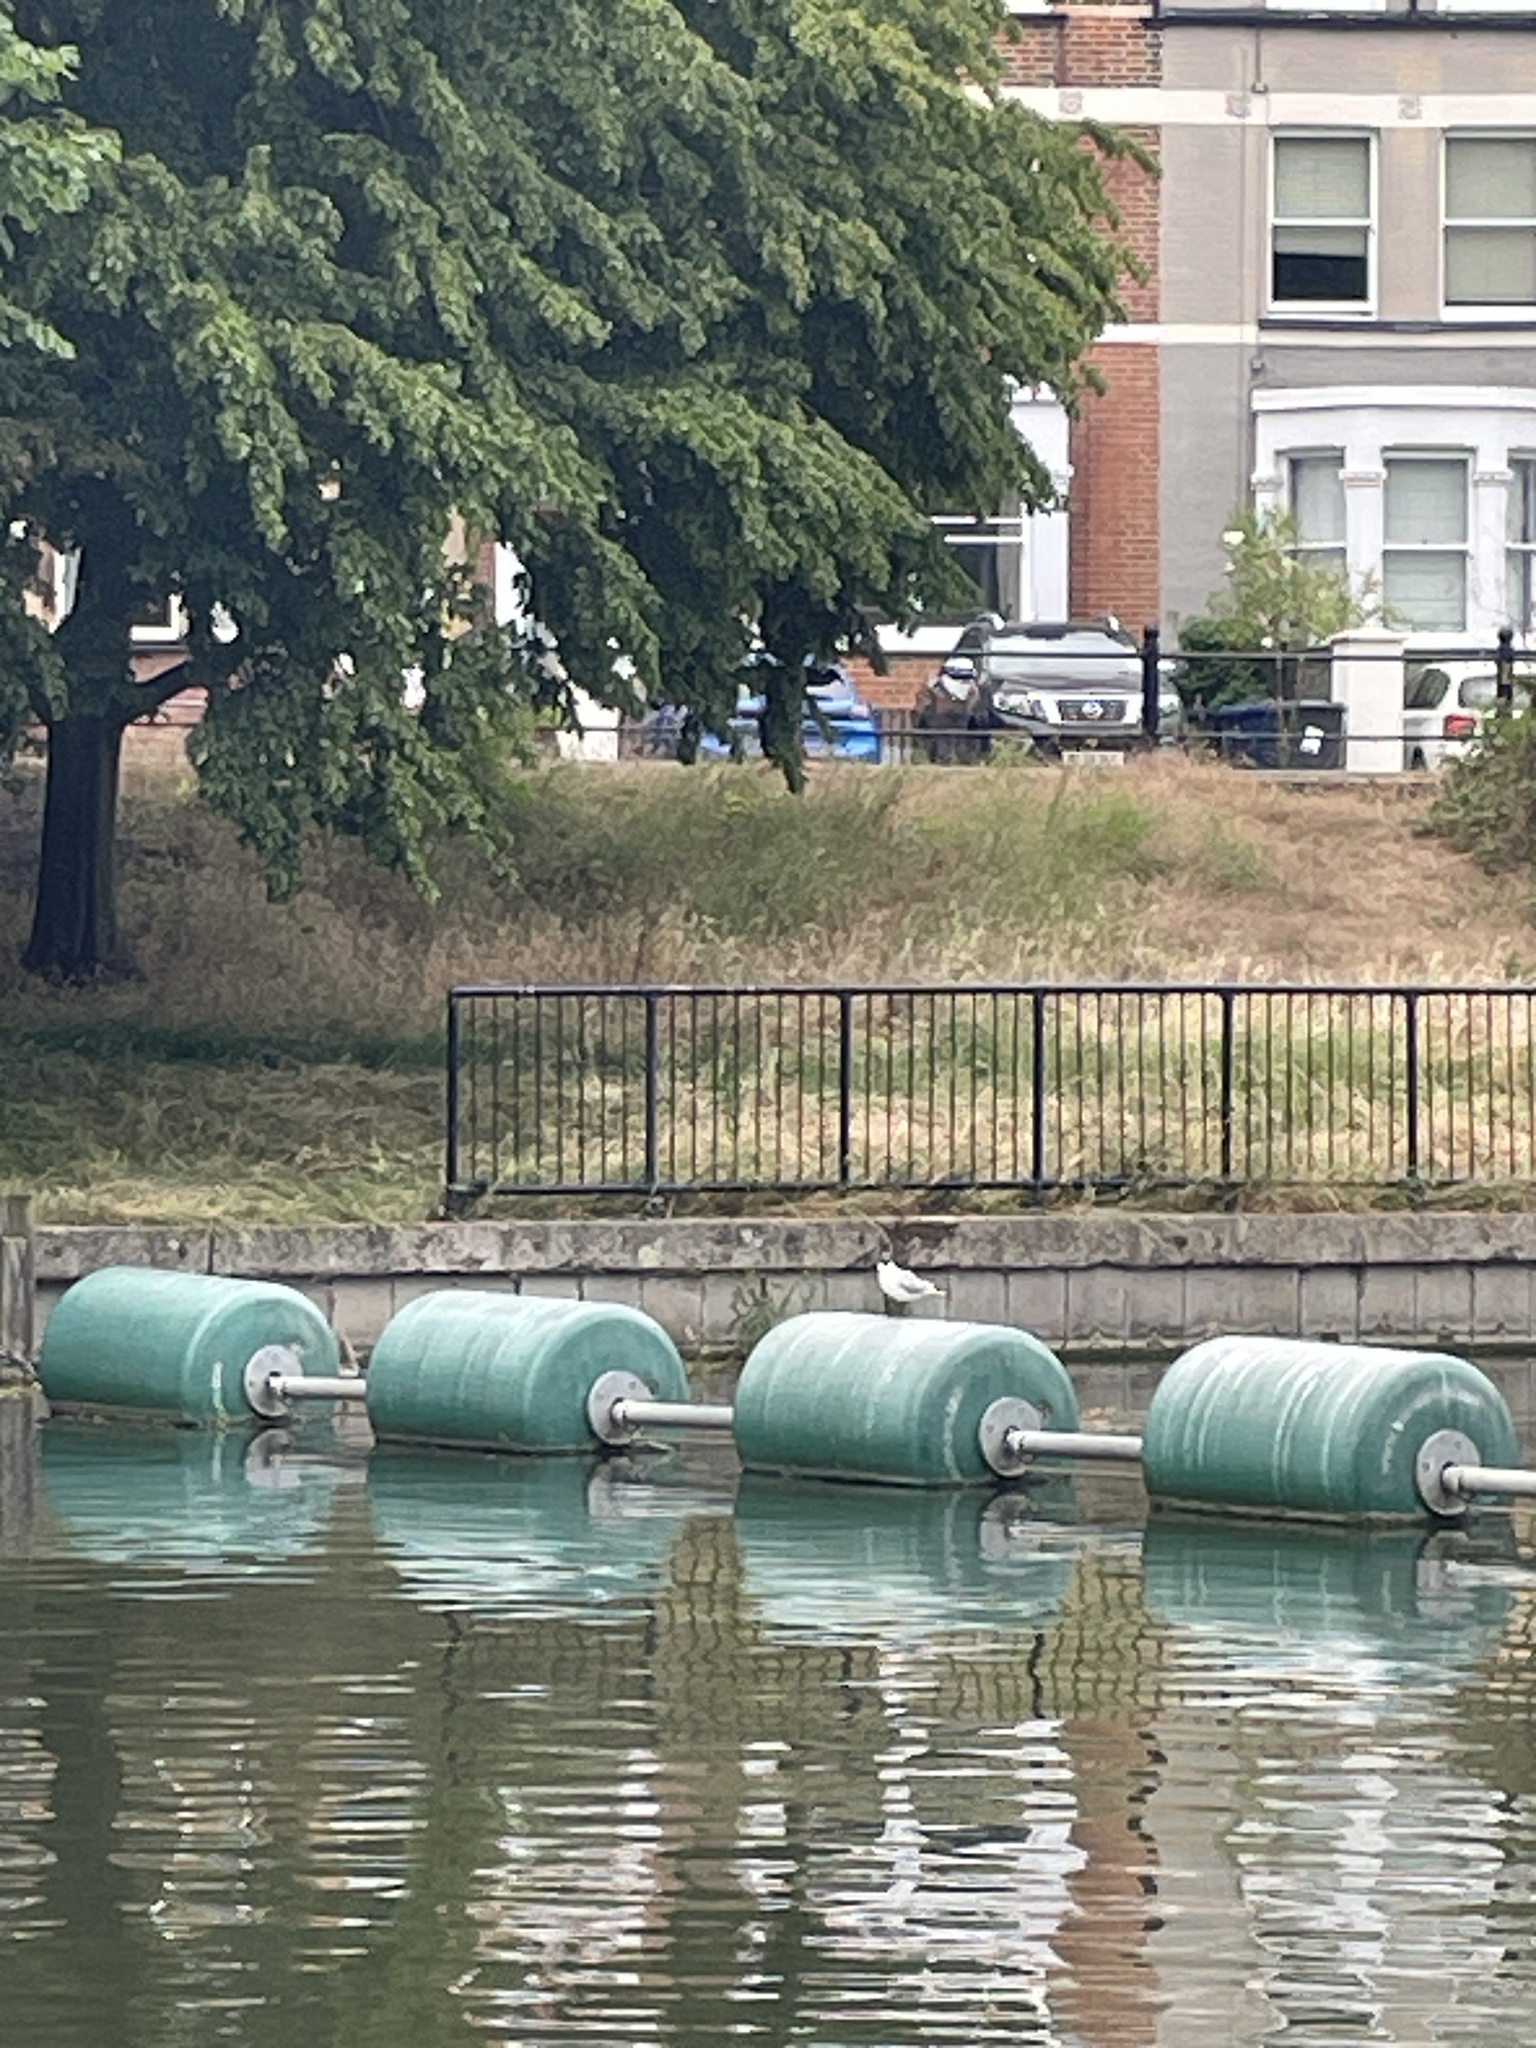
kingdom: Animalia
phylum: Chordata
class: Aves
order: Charadriiformes
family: Laridae
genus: Chroicocephalus
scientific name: Chroicocephalus ridibundus
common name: Black-headed gull
